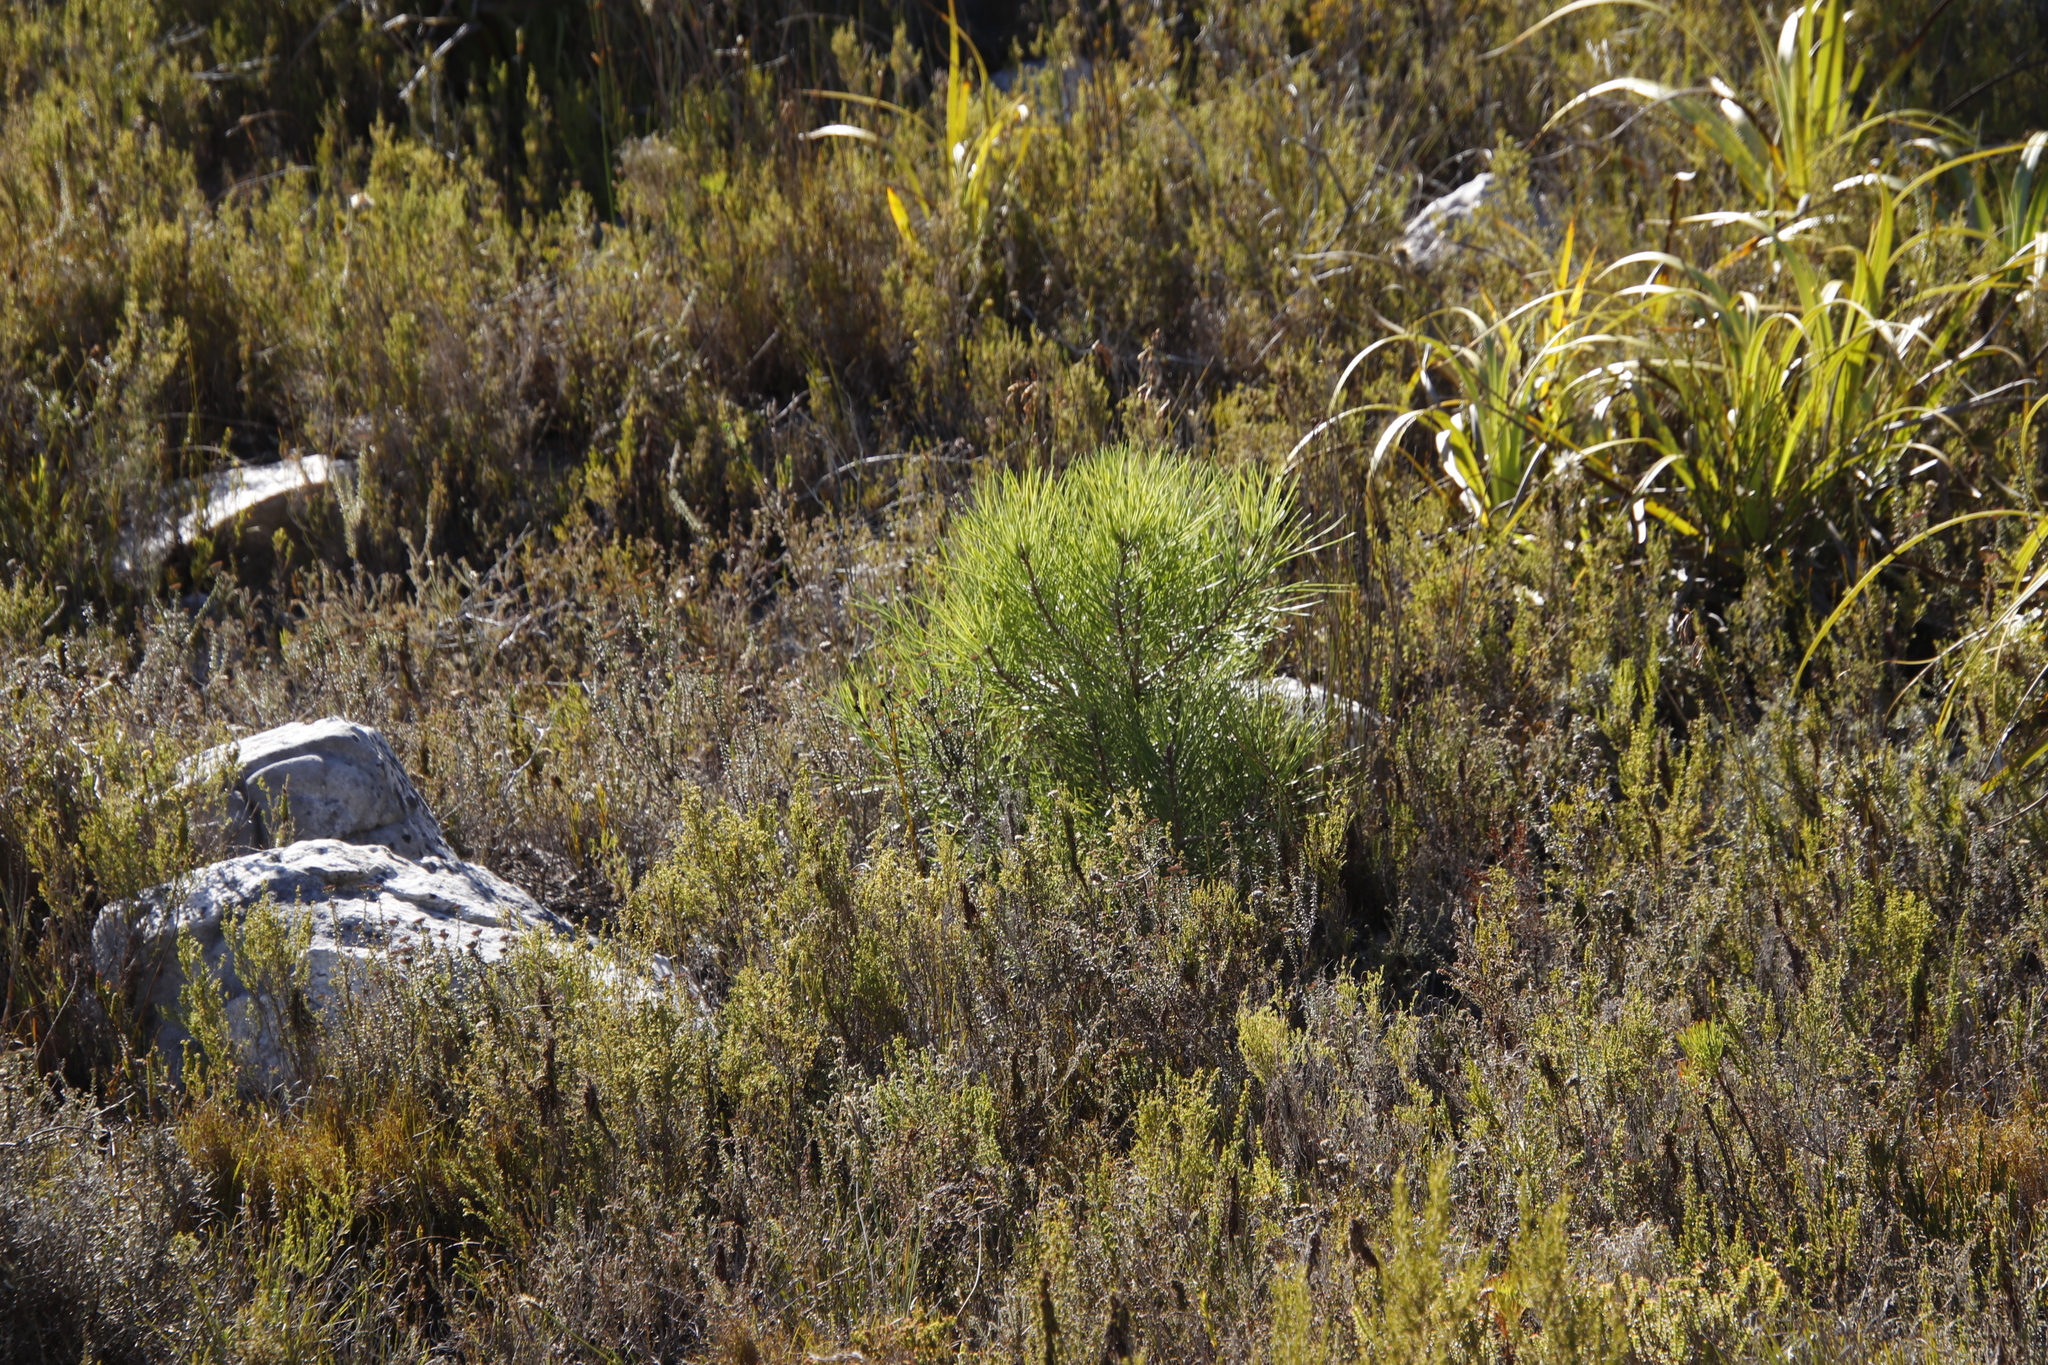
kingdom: Plantae
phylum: Tracheophyta
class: Pinopsida
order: Pinales
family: Pinaceae
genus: Pinus
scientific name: Pinus pinaster
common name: Maritime pine
